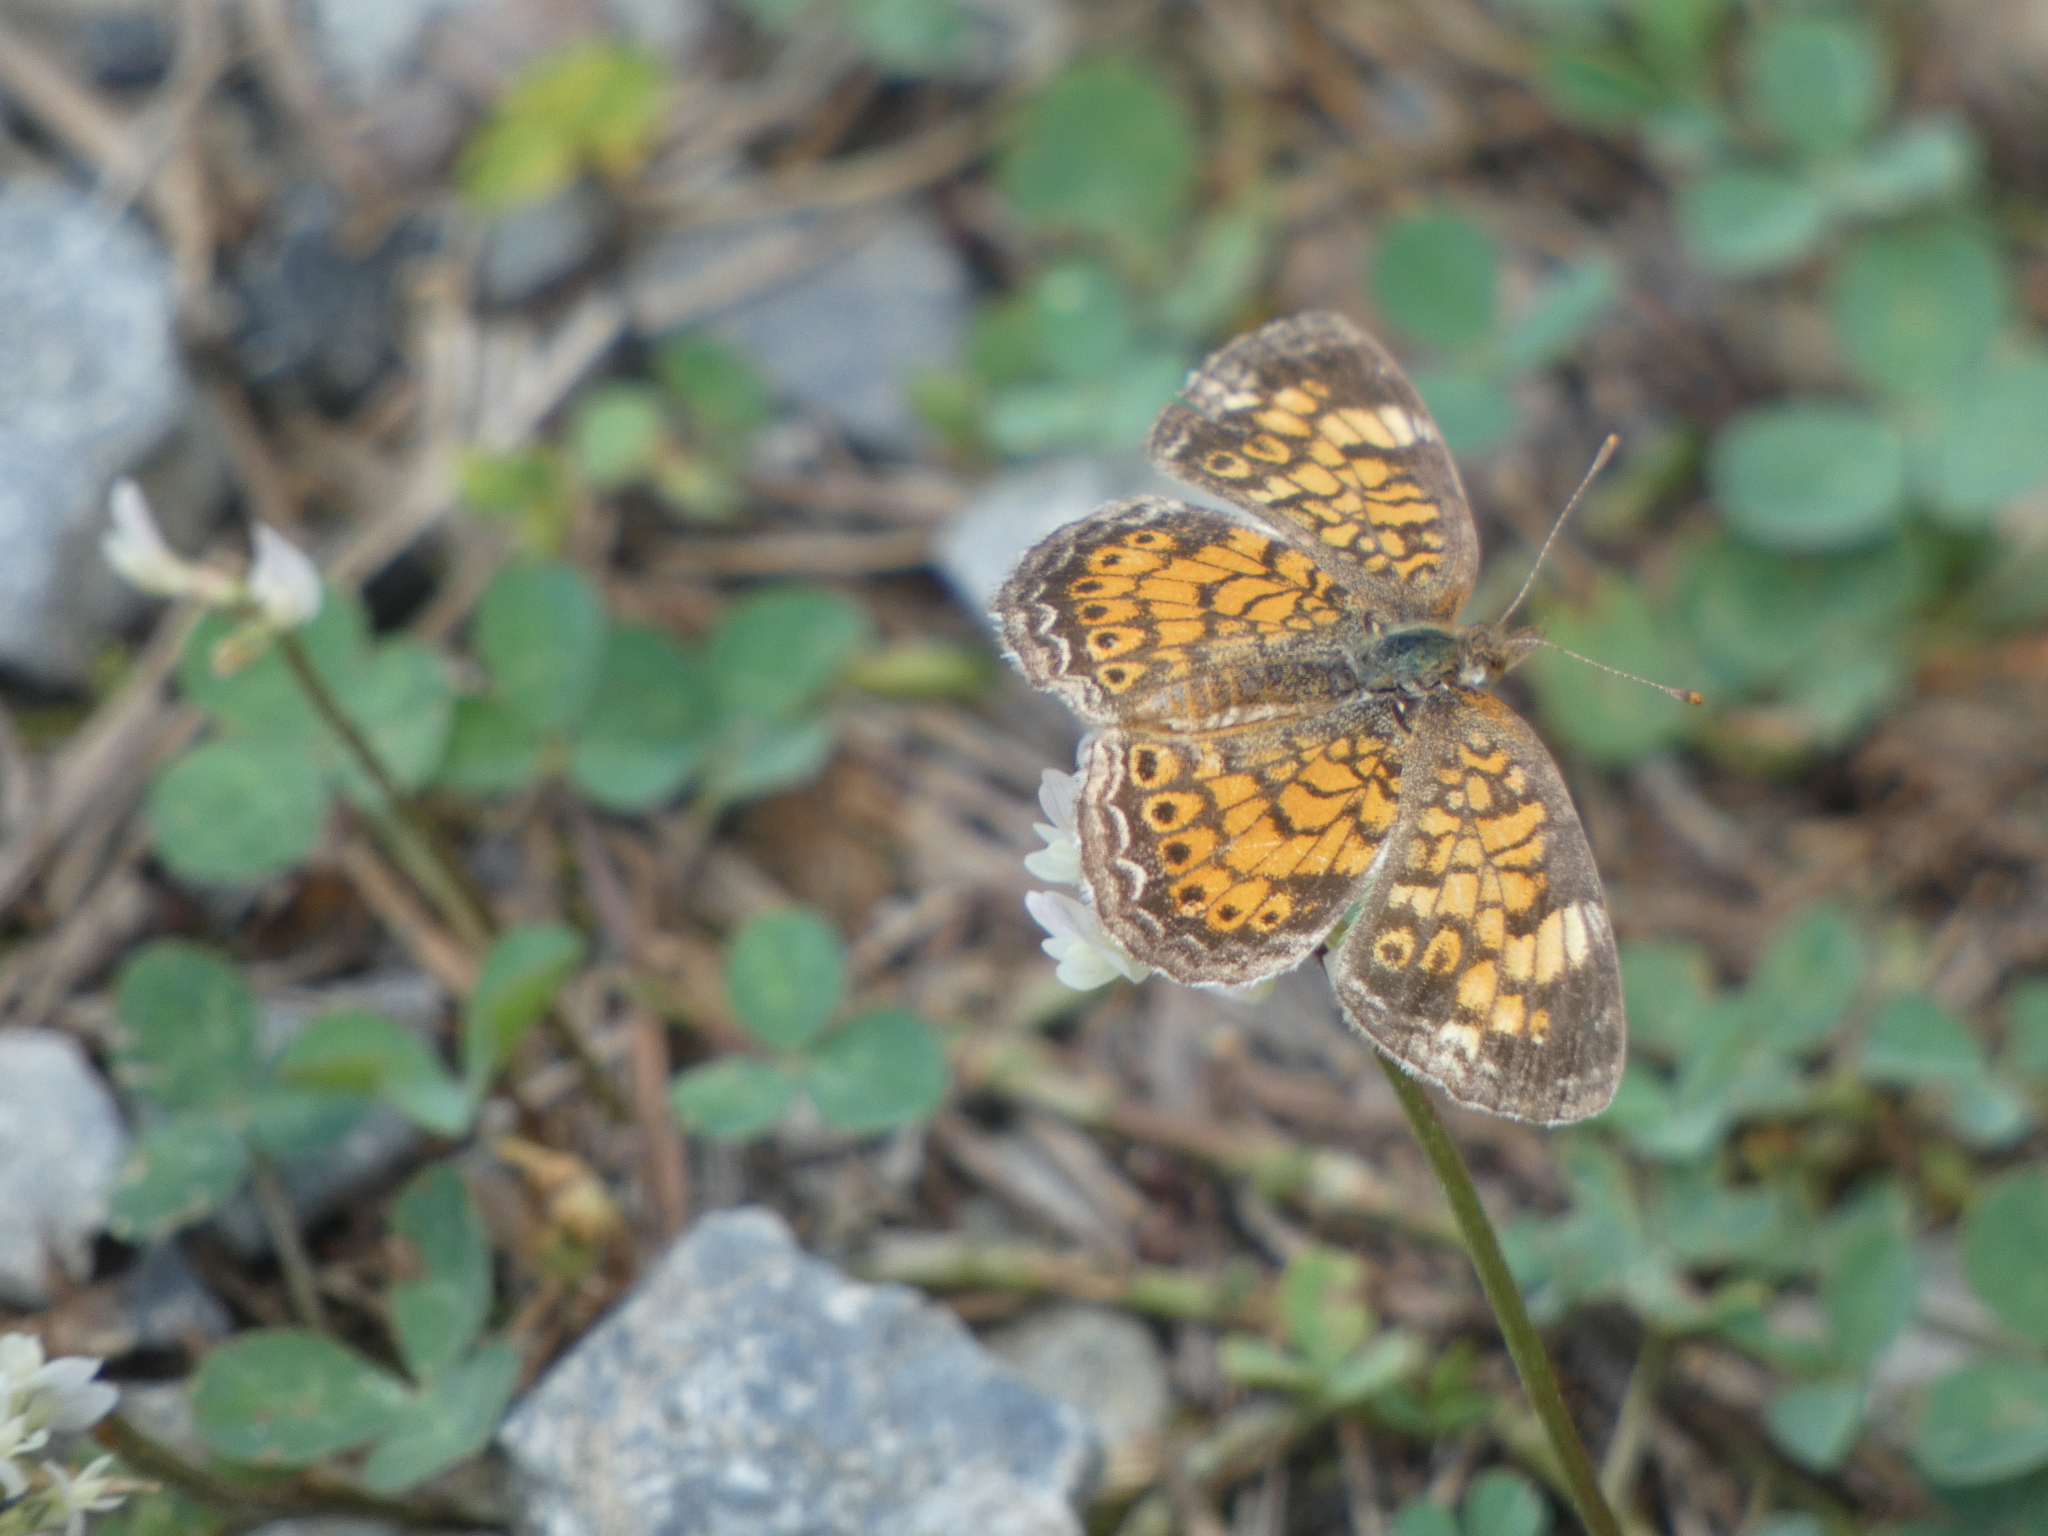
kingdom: Animalia
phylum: Arthropoda
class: Insecta
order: Lepidoptera
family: Nymphalidae
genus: Phyciodes
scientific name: Phyciodes tharos
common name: Pearl crescent
